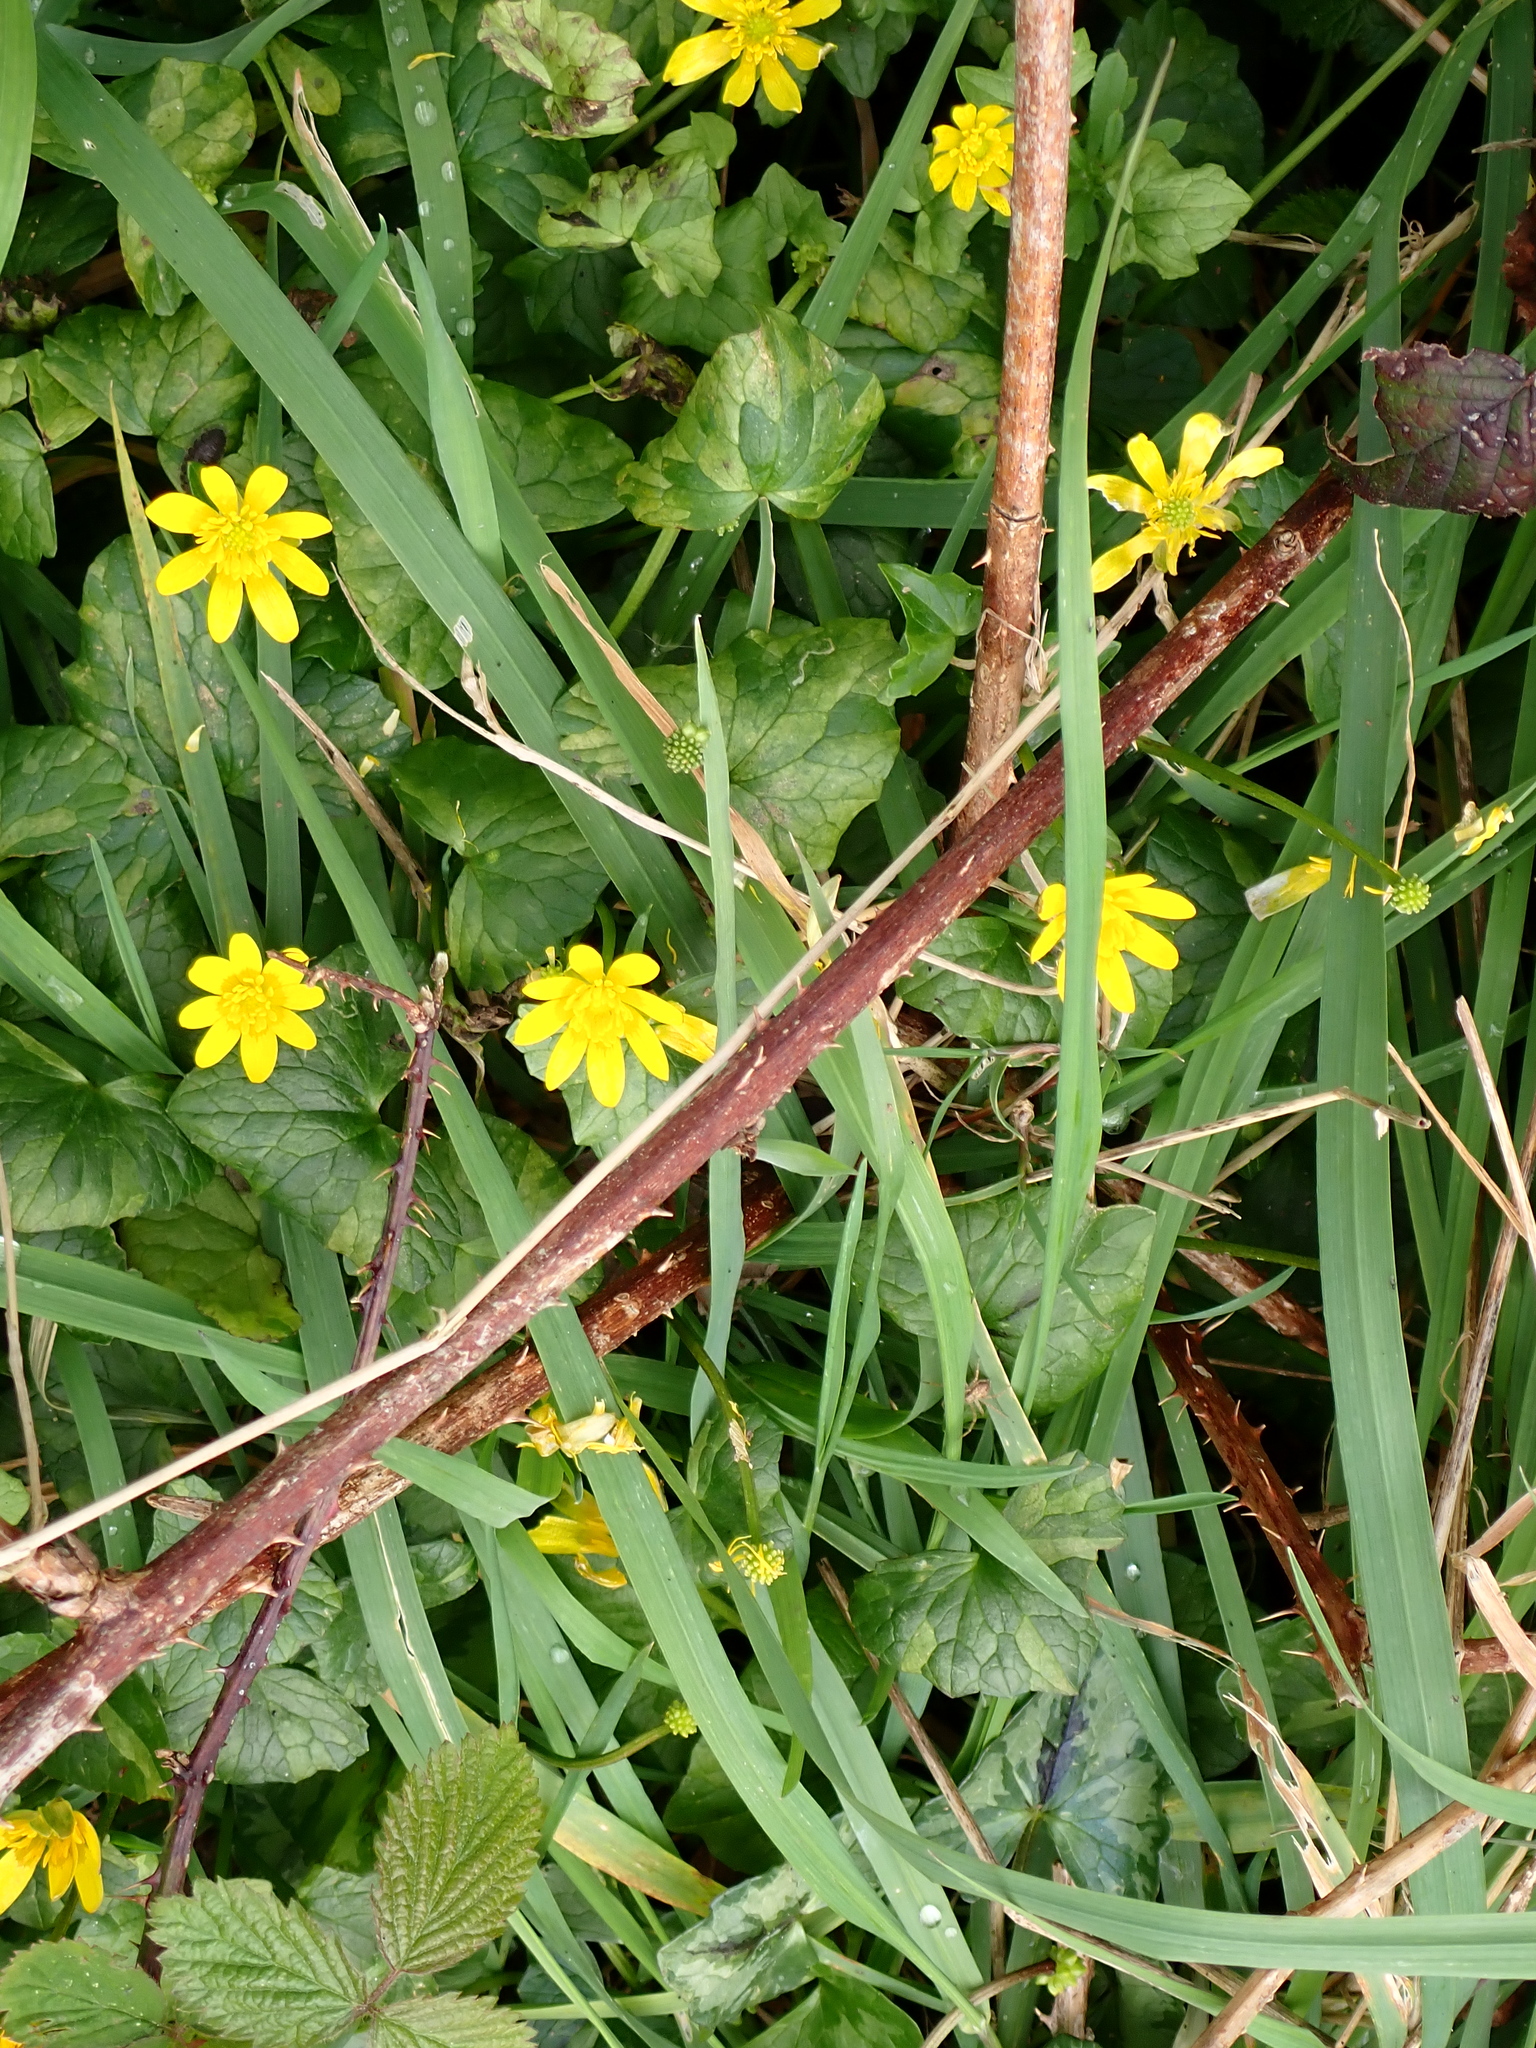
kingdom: Plantae
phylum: Tracheophyta
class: Magnoliopsida
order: Ranunculales
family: Ranunculaceae
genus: Ficaria
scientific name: Ficaria verna
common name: Lesser celandine
